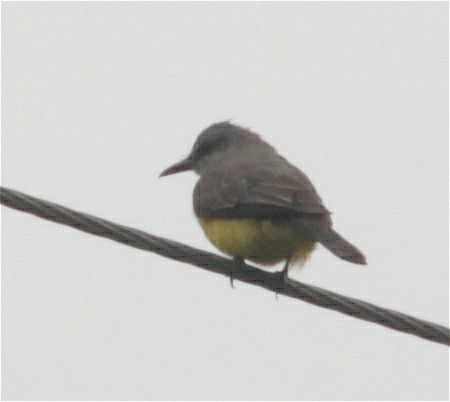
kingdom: Animalia
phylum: Chordata
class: Aves
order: Passeriformes
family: Tyrannidae
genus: Tyrannus
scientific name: Tyrannus melancholicus
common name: Tropical kingbird
